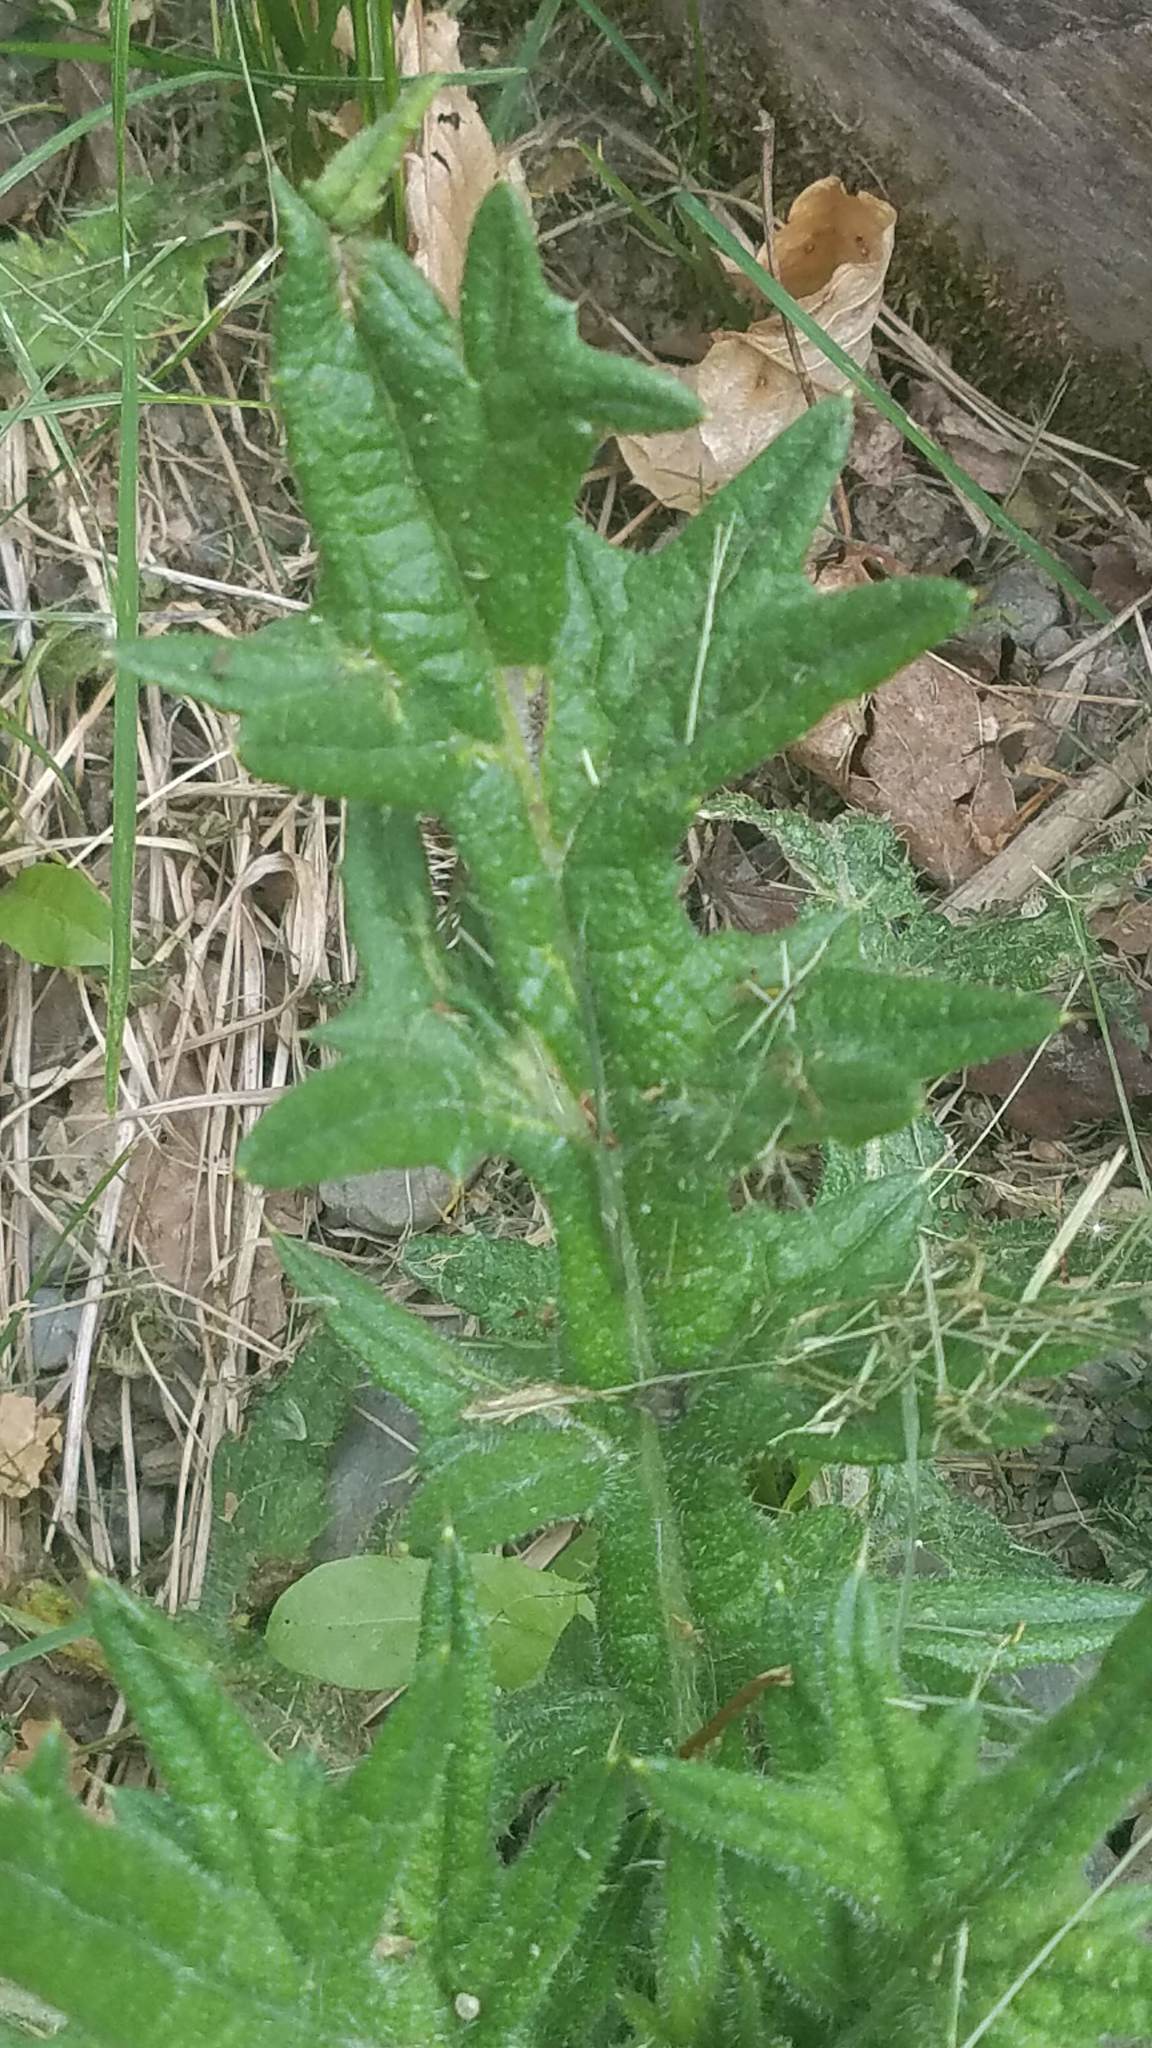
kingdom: Plantae
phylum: Tracheophyta
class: Magnoliopsida
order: Asterales
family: Asteraceae
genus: Cirsium
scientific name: Cirsium vulgare
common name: Bull thistle
